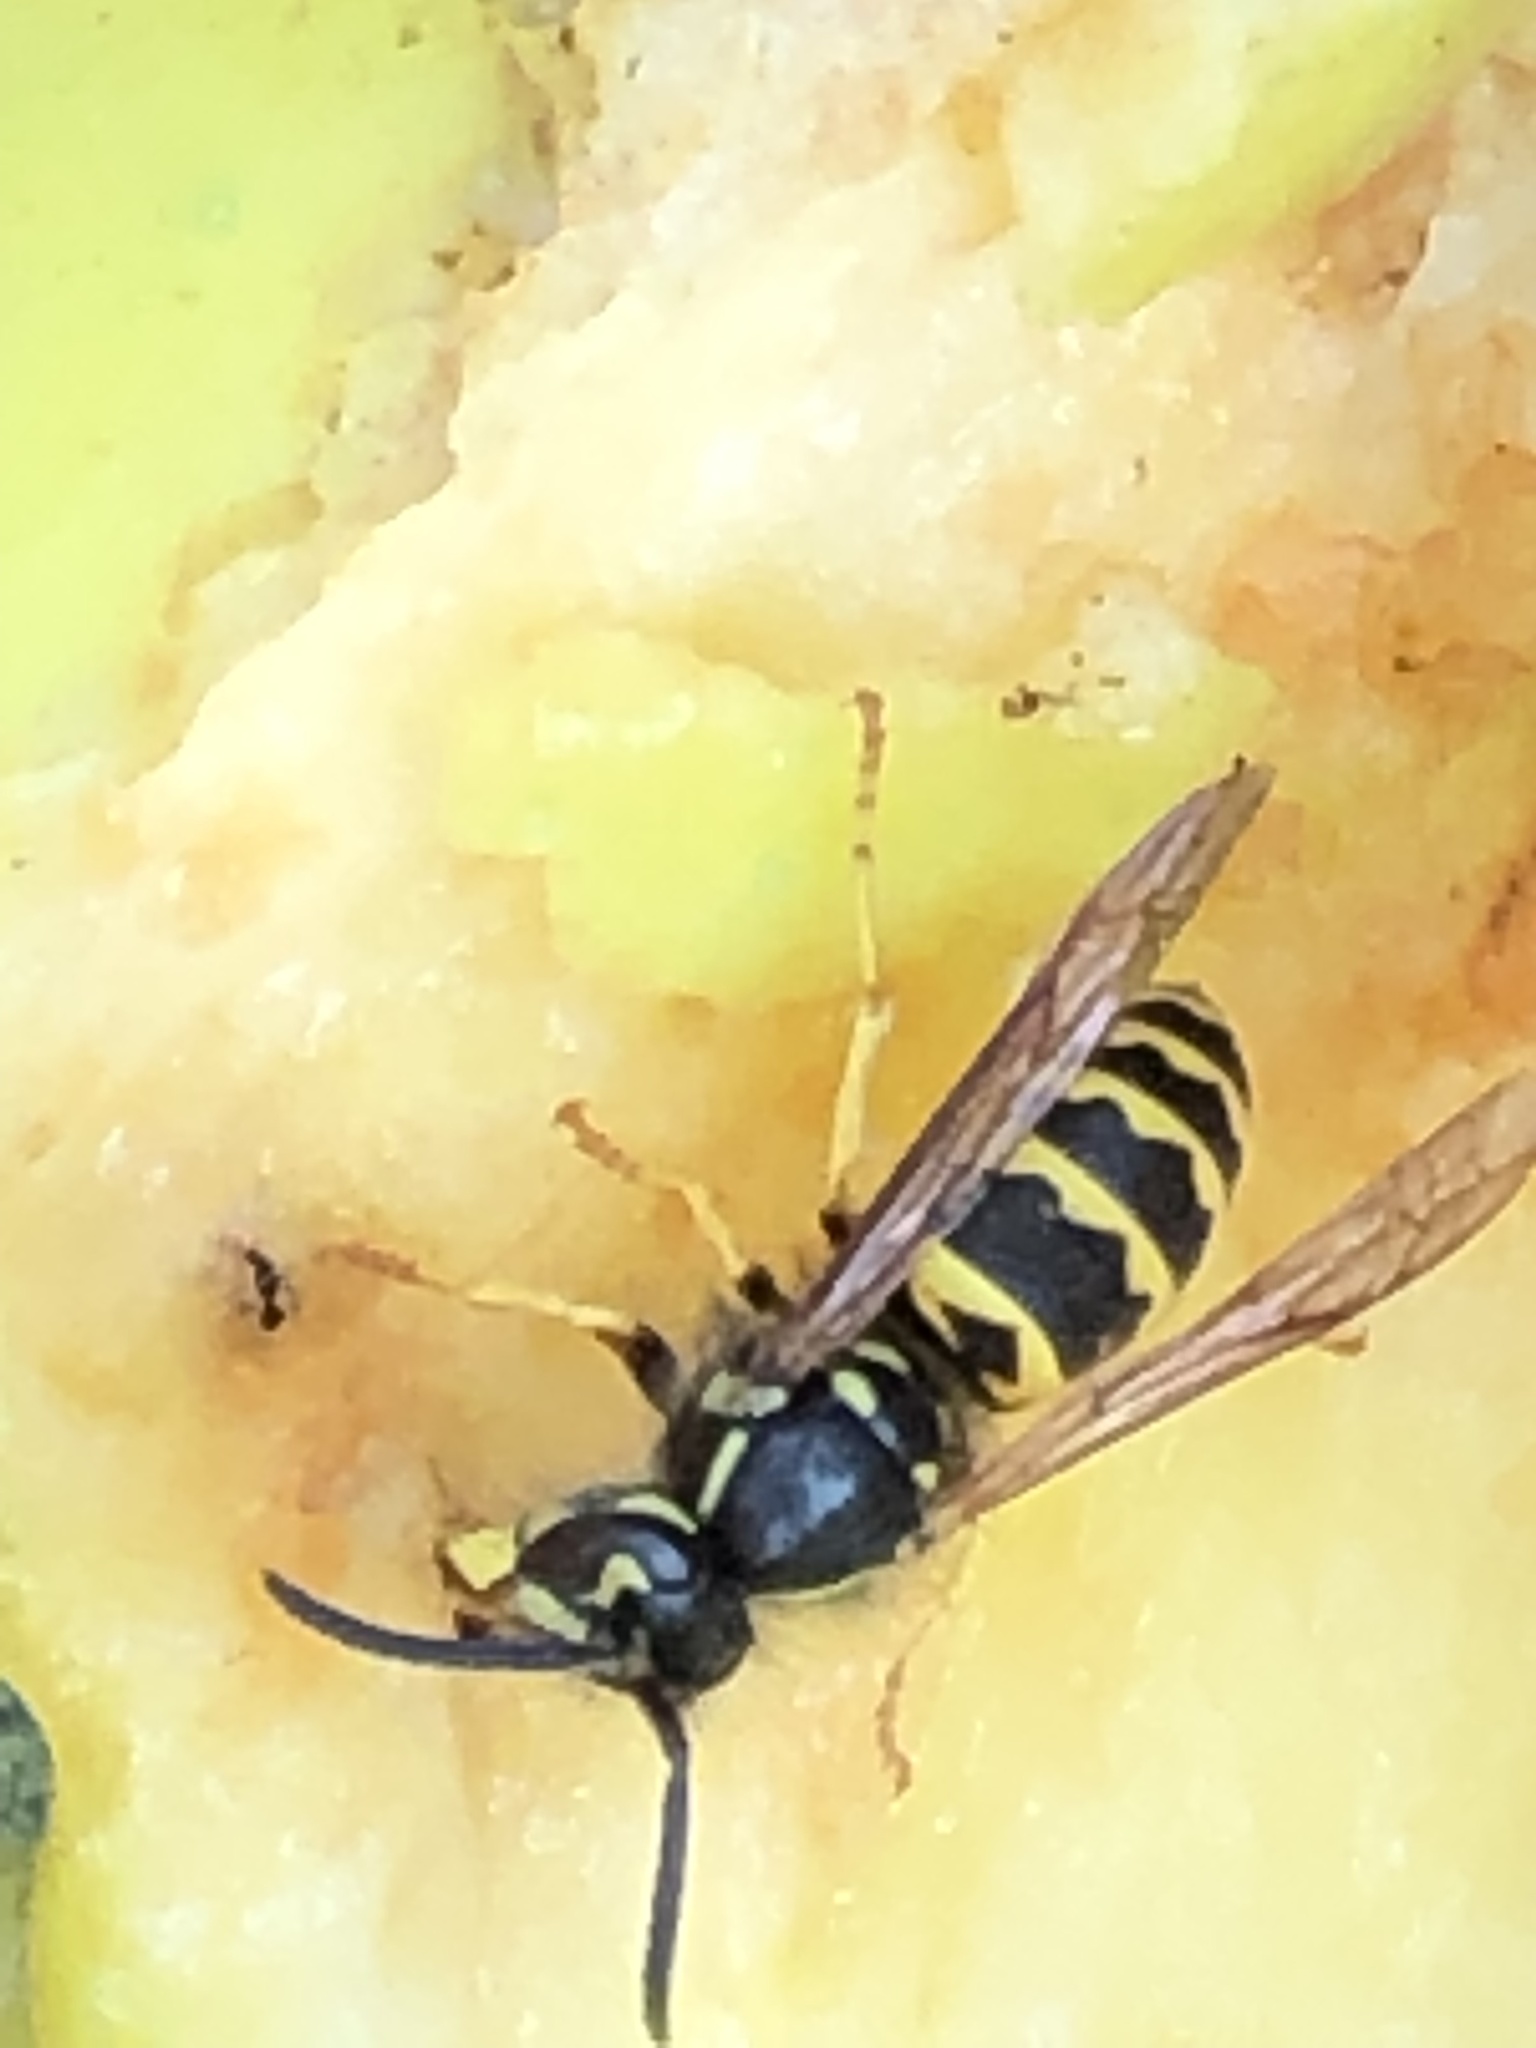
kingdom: Animalia
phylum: Arthropoda
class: Insecta
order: Hymenoptera
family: Vespidae
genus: Vespula
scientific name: Vespula alascensis
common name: Alaska yellowjacket
